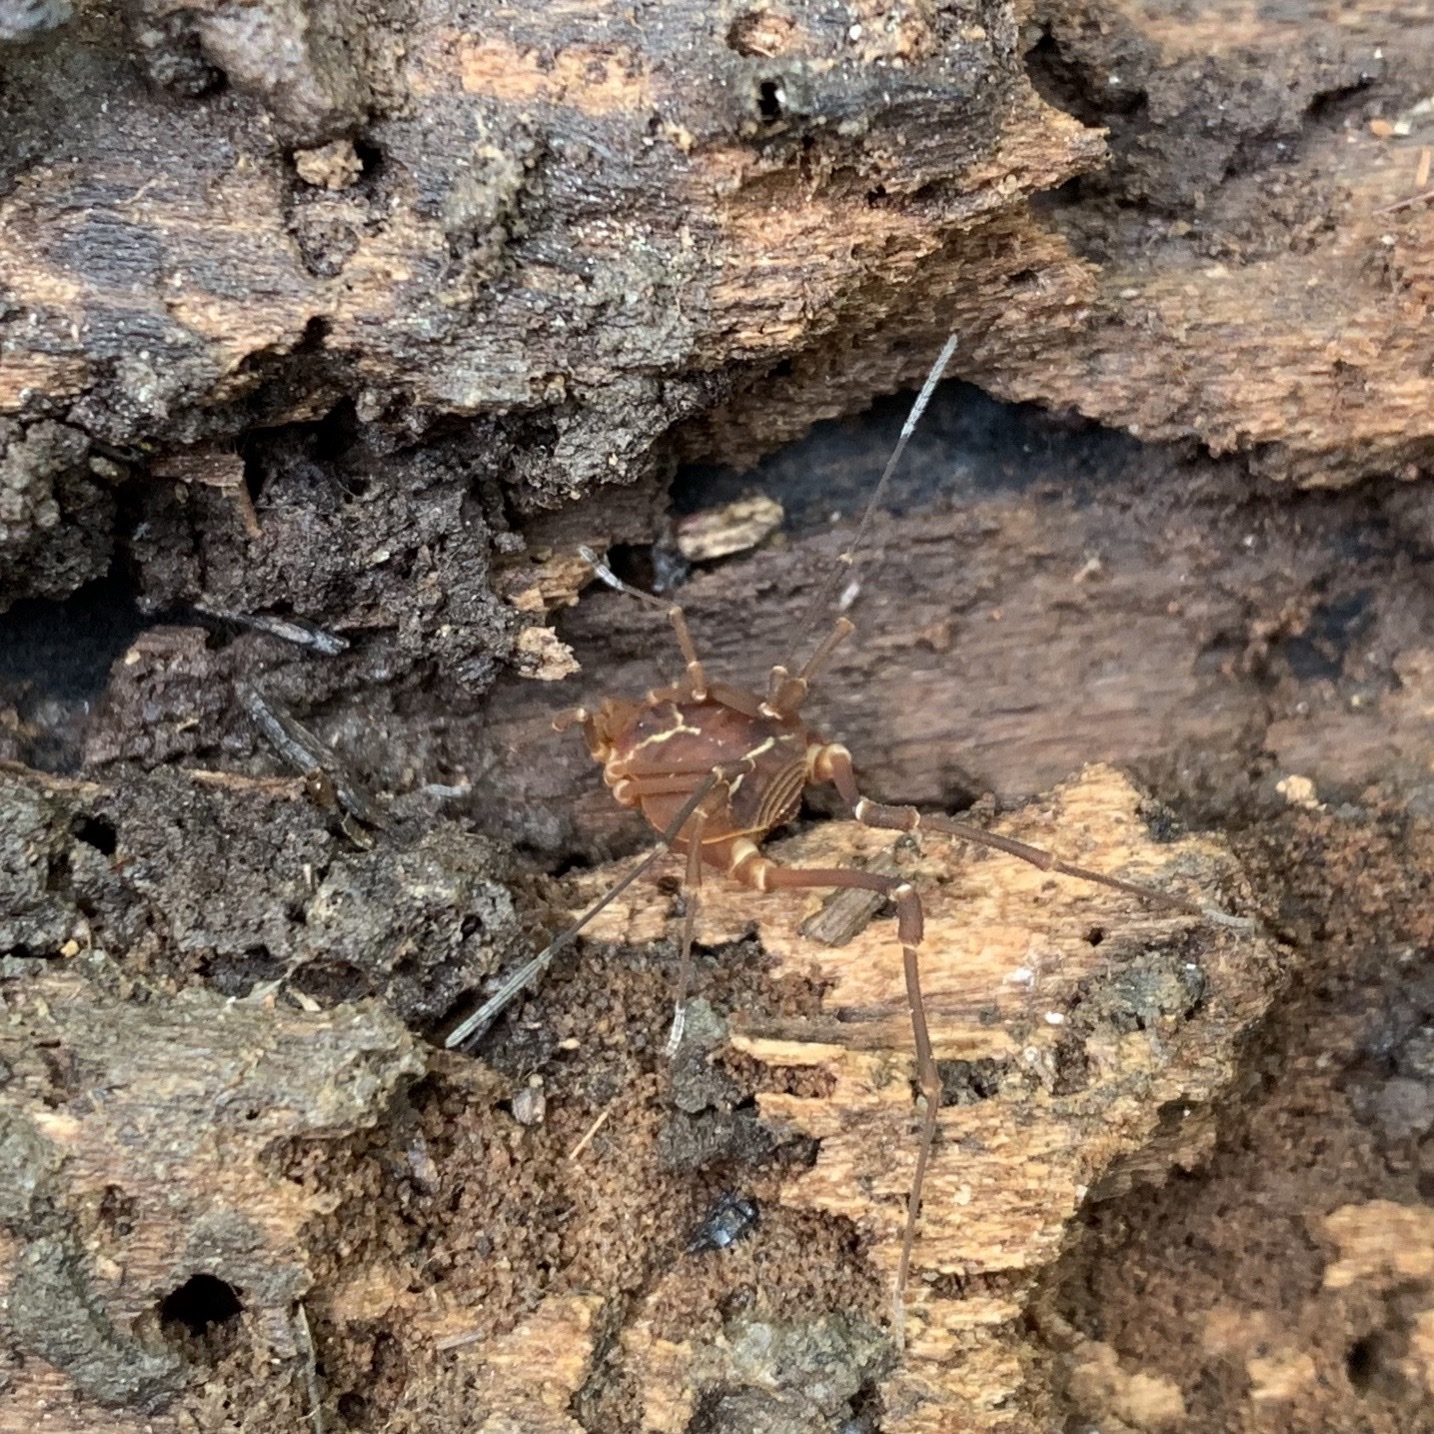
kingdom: Animalia
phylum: Arthropoda
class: Arachnida
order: Opiliones
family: Cosmetidae
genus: Libitioides
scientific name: Libitioides sayi
